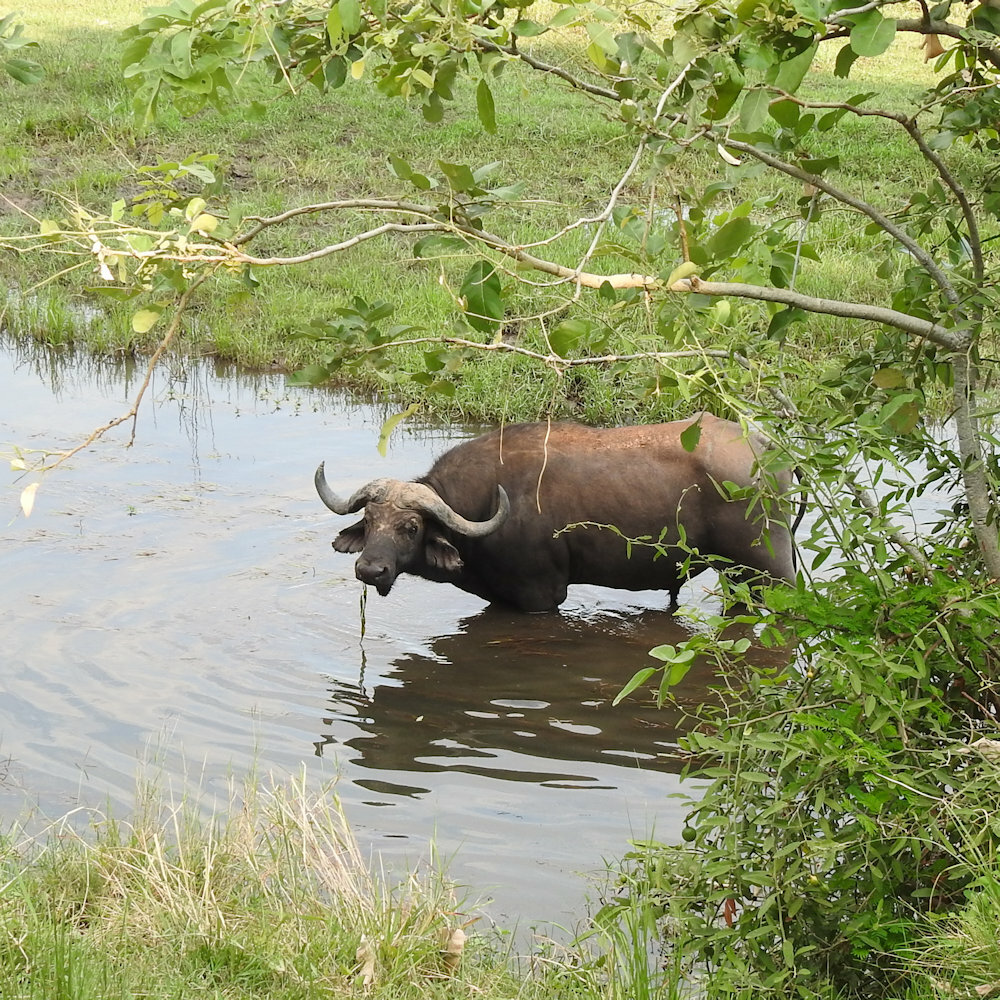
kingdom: Animalia
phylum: Chordata
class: Mammalia
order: Artiodactyla
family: Bovidae
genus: Syncerus
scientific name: Syncerus caffer
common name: African buffalo
